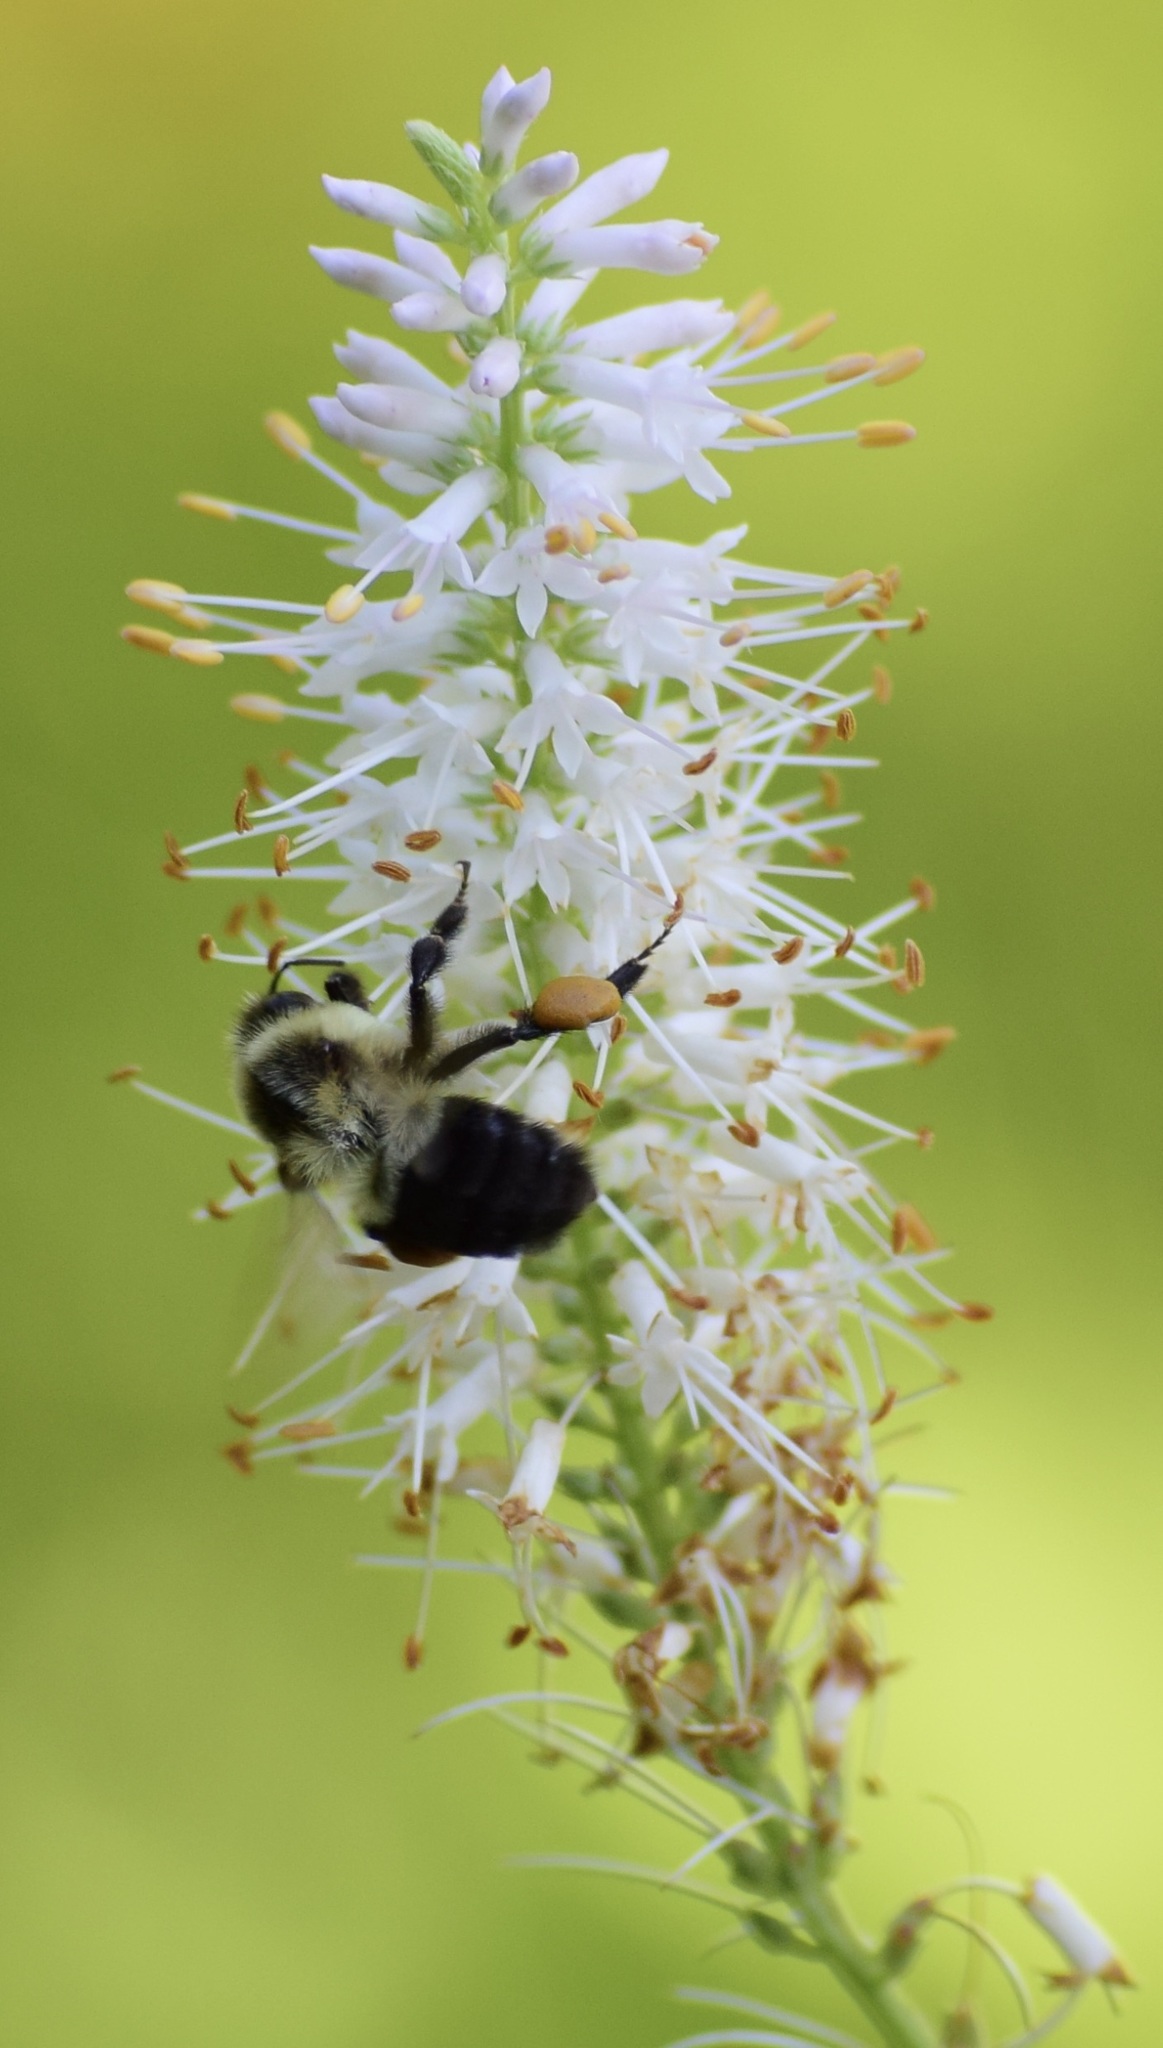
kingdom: Animalia
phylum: Arthropoda
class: Insecta
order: Hymenoptera
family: Apidae
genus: Bombus
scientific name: Bombus impatiens
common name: Common eastern bumble bee
